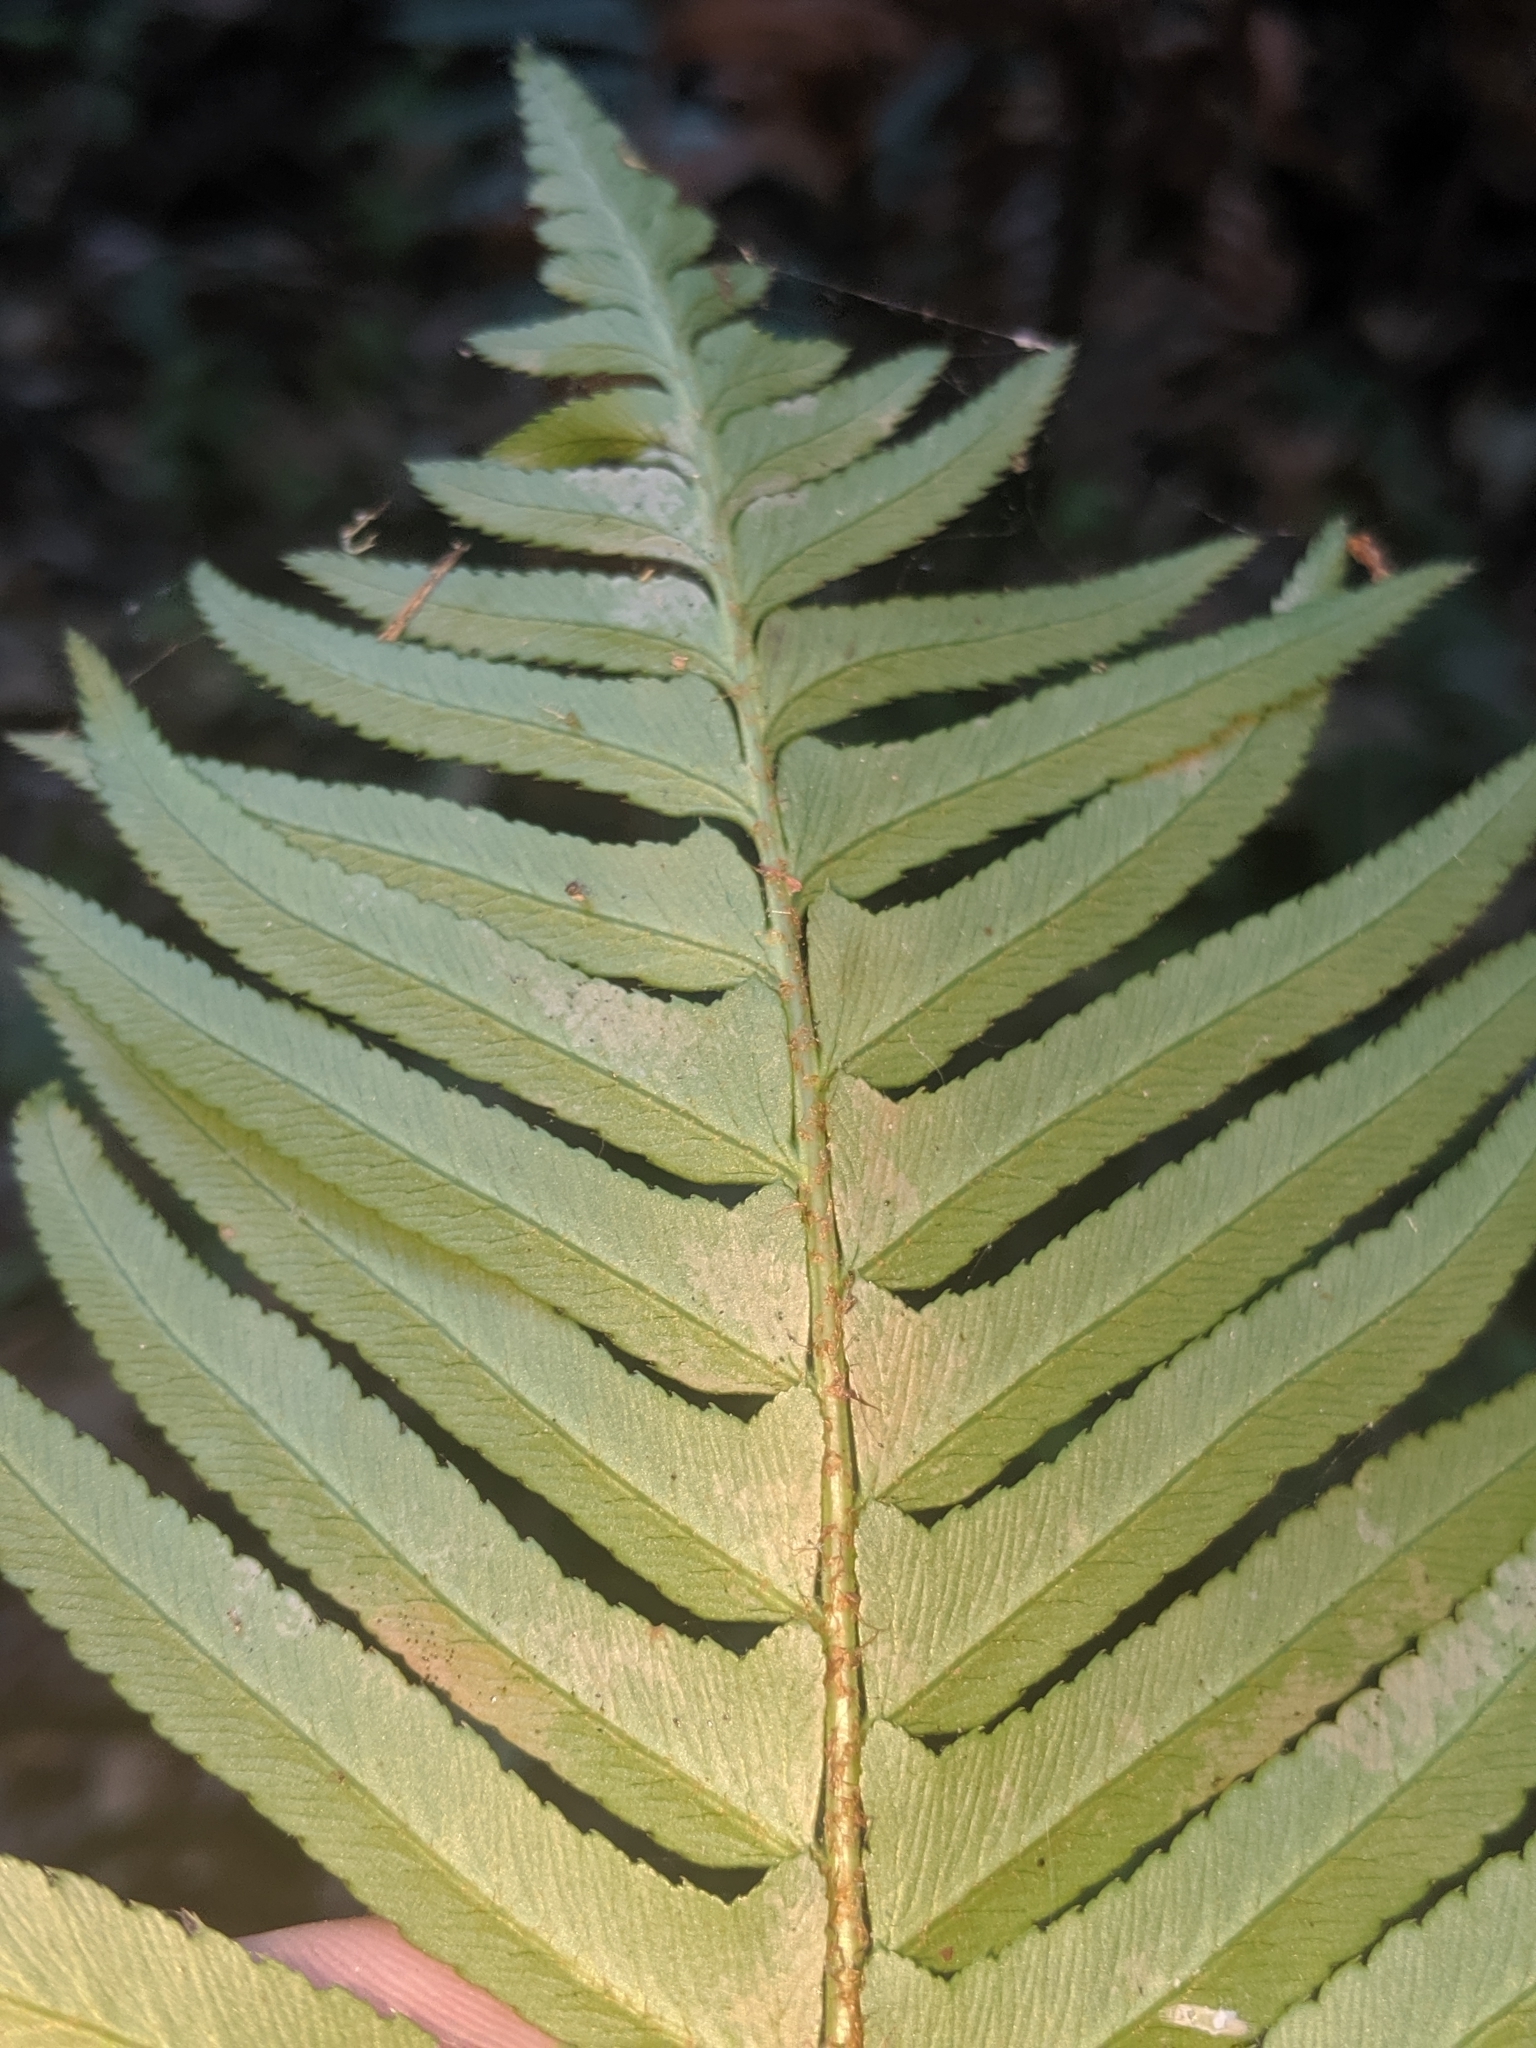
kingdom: Plantae
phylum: Tracheophyta
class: Polypodiopsida
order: Polypodiales
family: Dryopteridaceae
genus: Polystichum
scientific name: Polystichum munitum
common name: Western sword-fern
